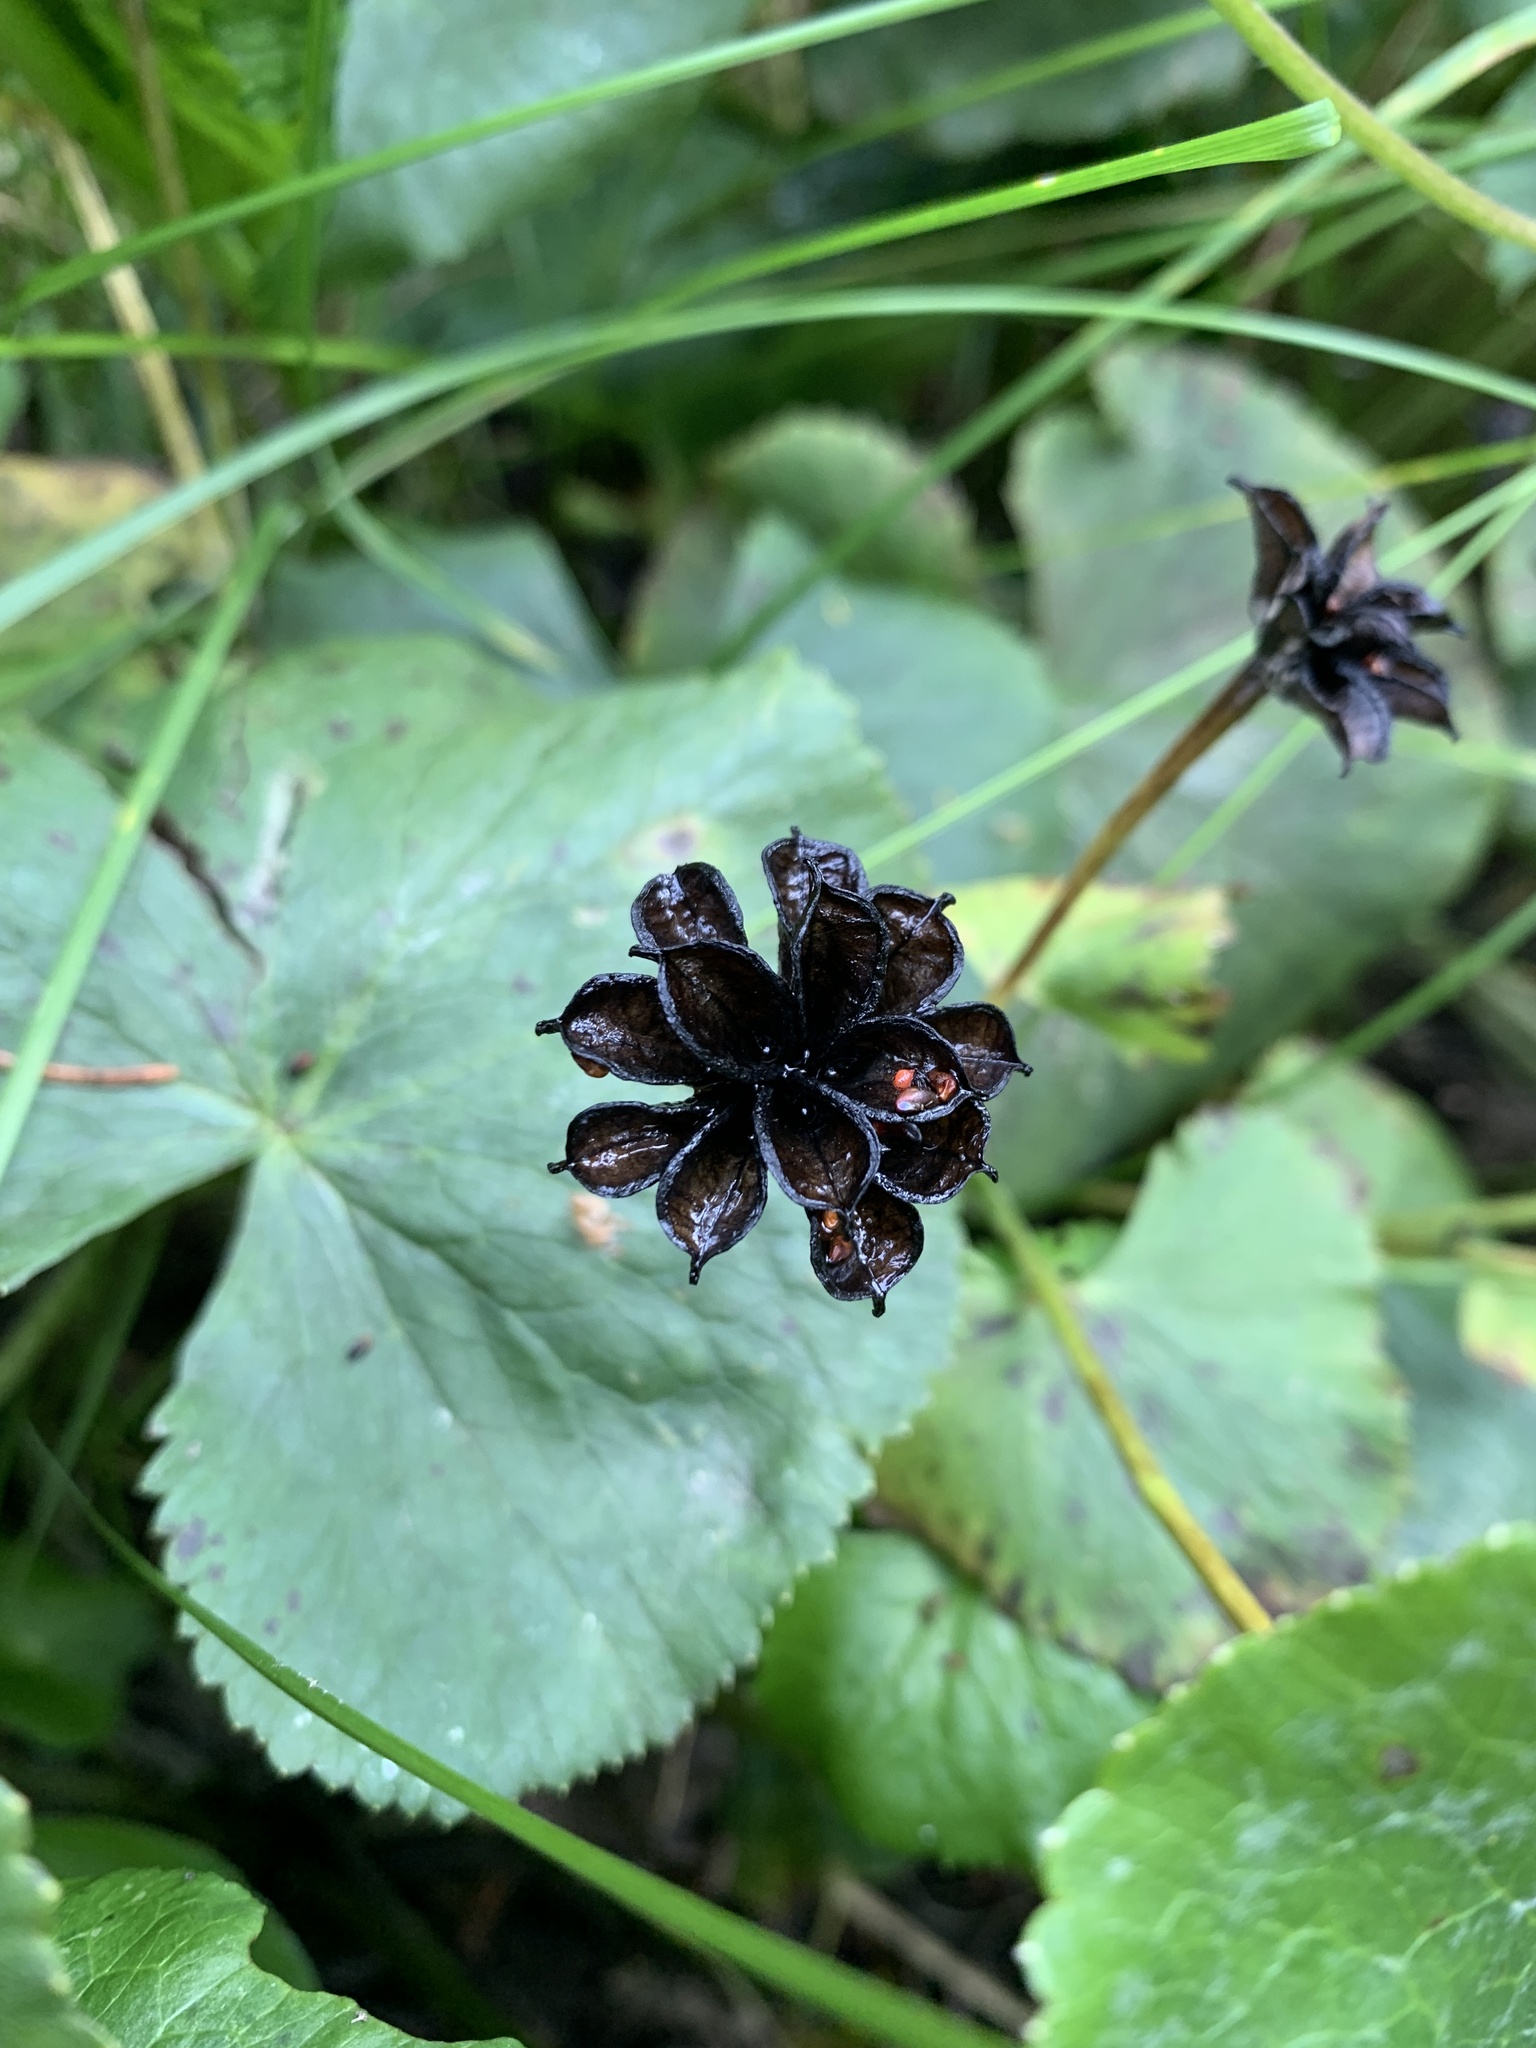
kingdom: Plantae
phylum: Tracheophyta
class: Magnoliopsida
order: Ranunculales
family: Ranunculaceae
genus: Caltha
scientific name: Caltha palustris
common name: Marsh marigold
